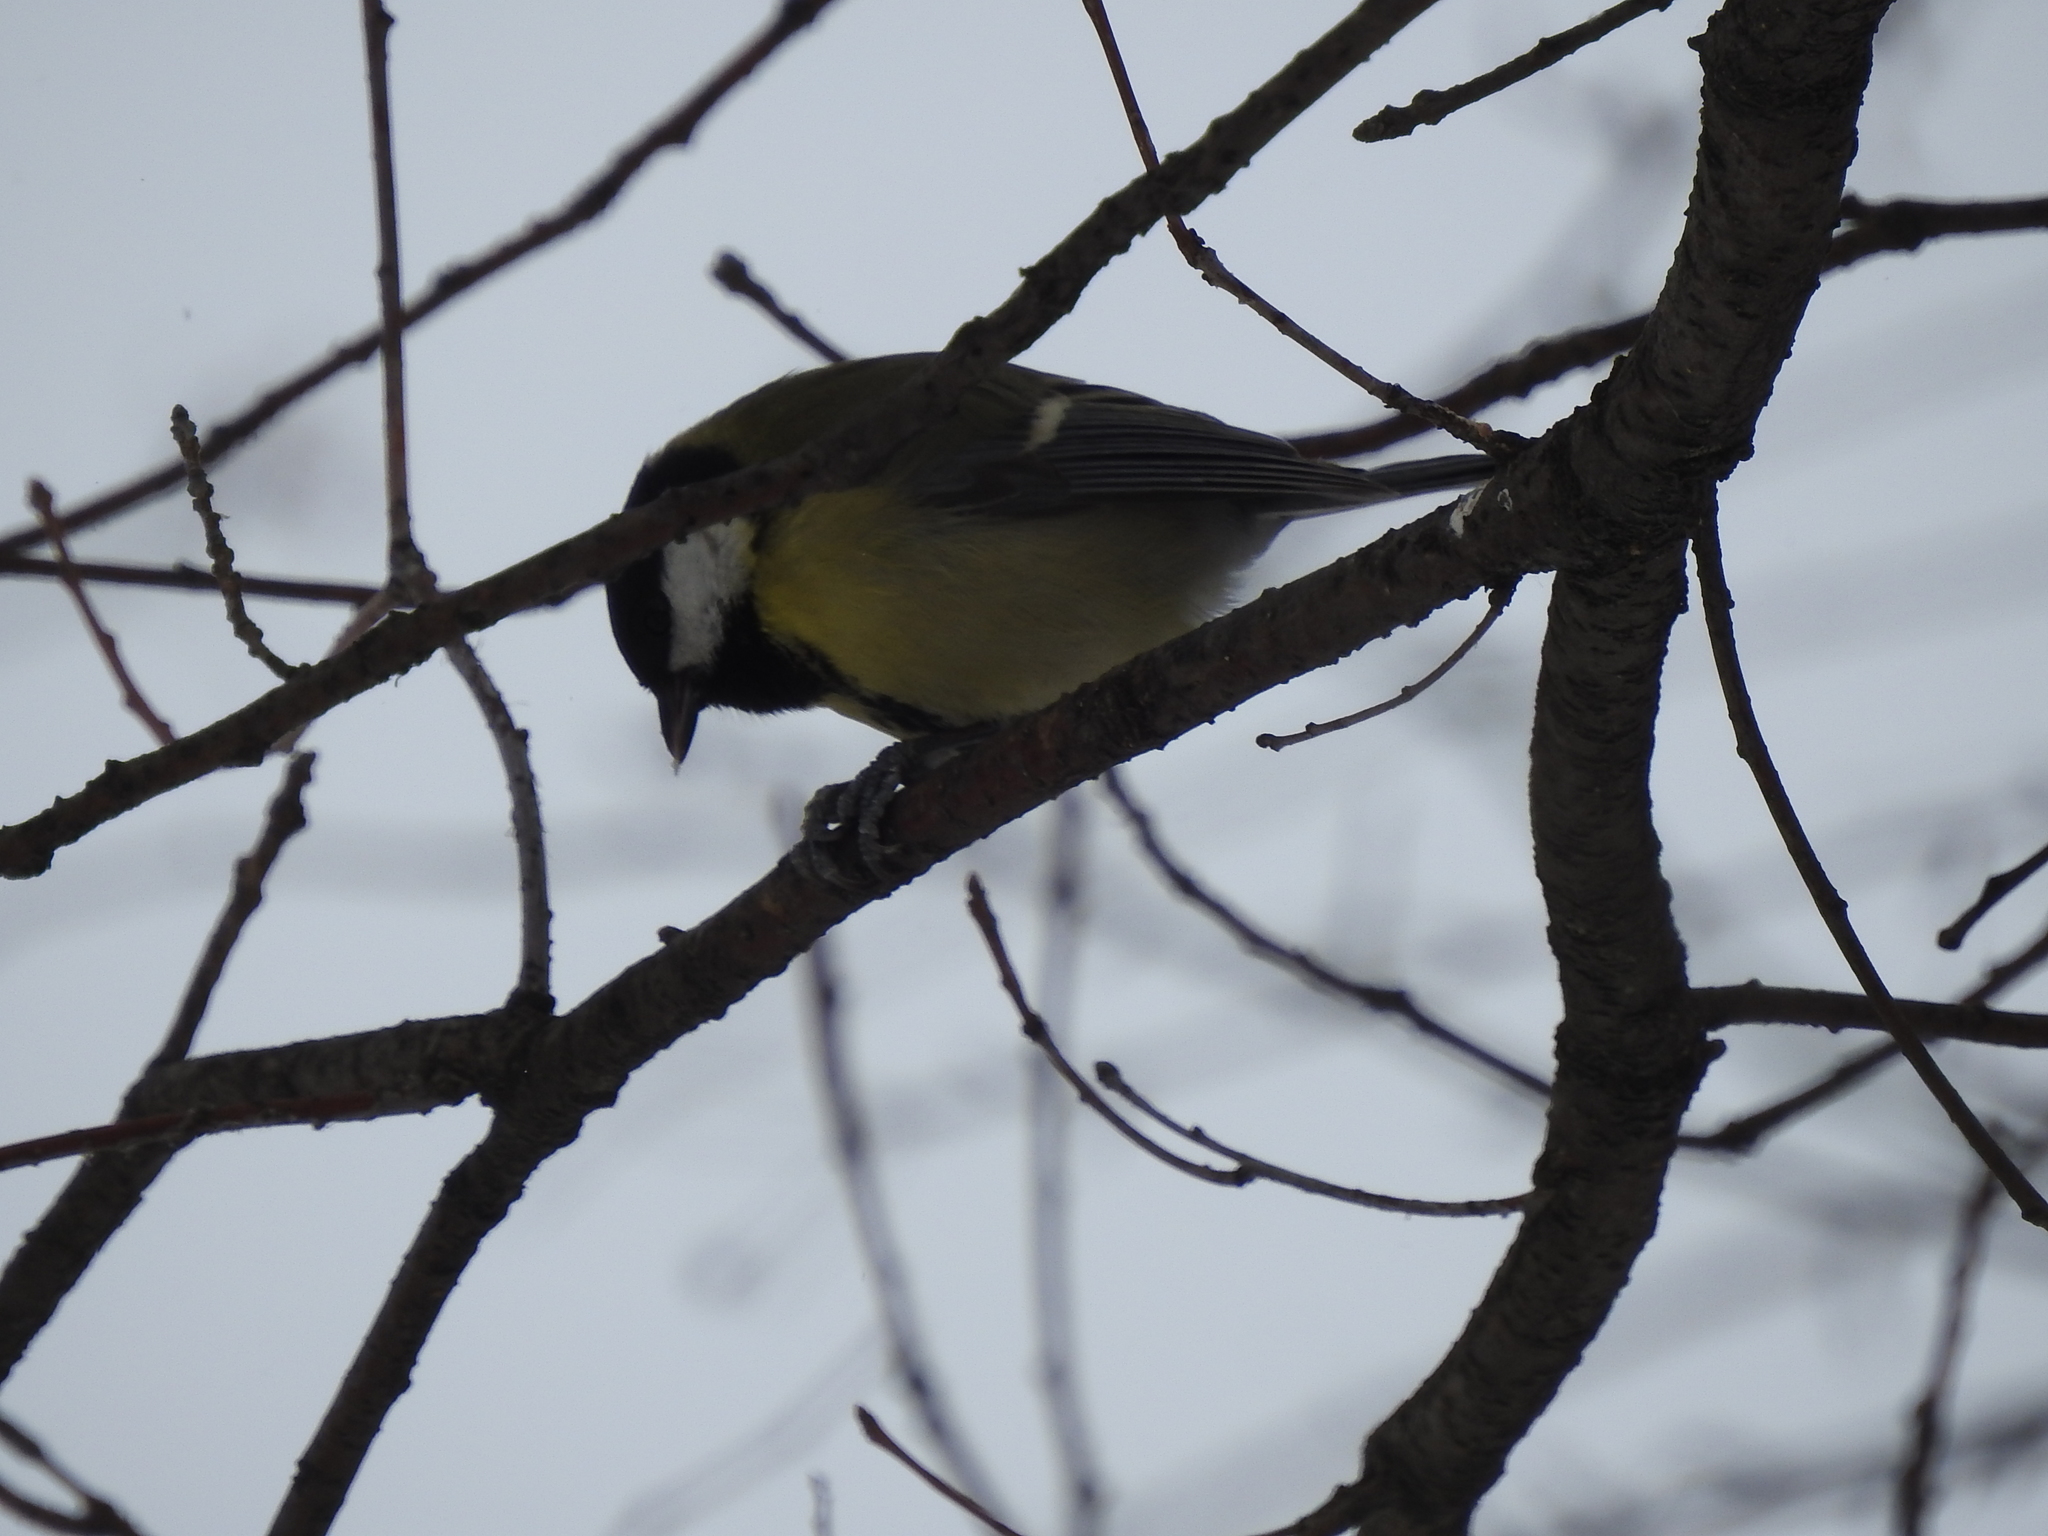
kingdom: Animalia
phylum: Chordata
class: Aves
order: Passeriformes
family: Paridae
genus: Parus
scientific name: Parus major
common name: Great tit
